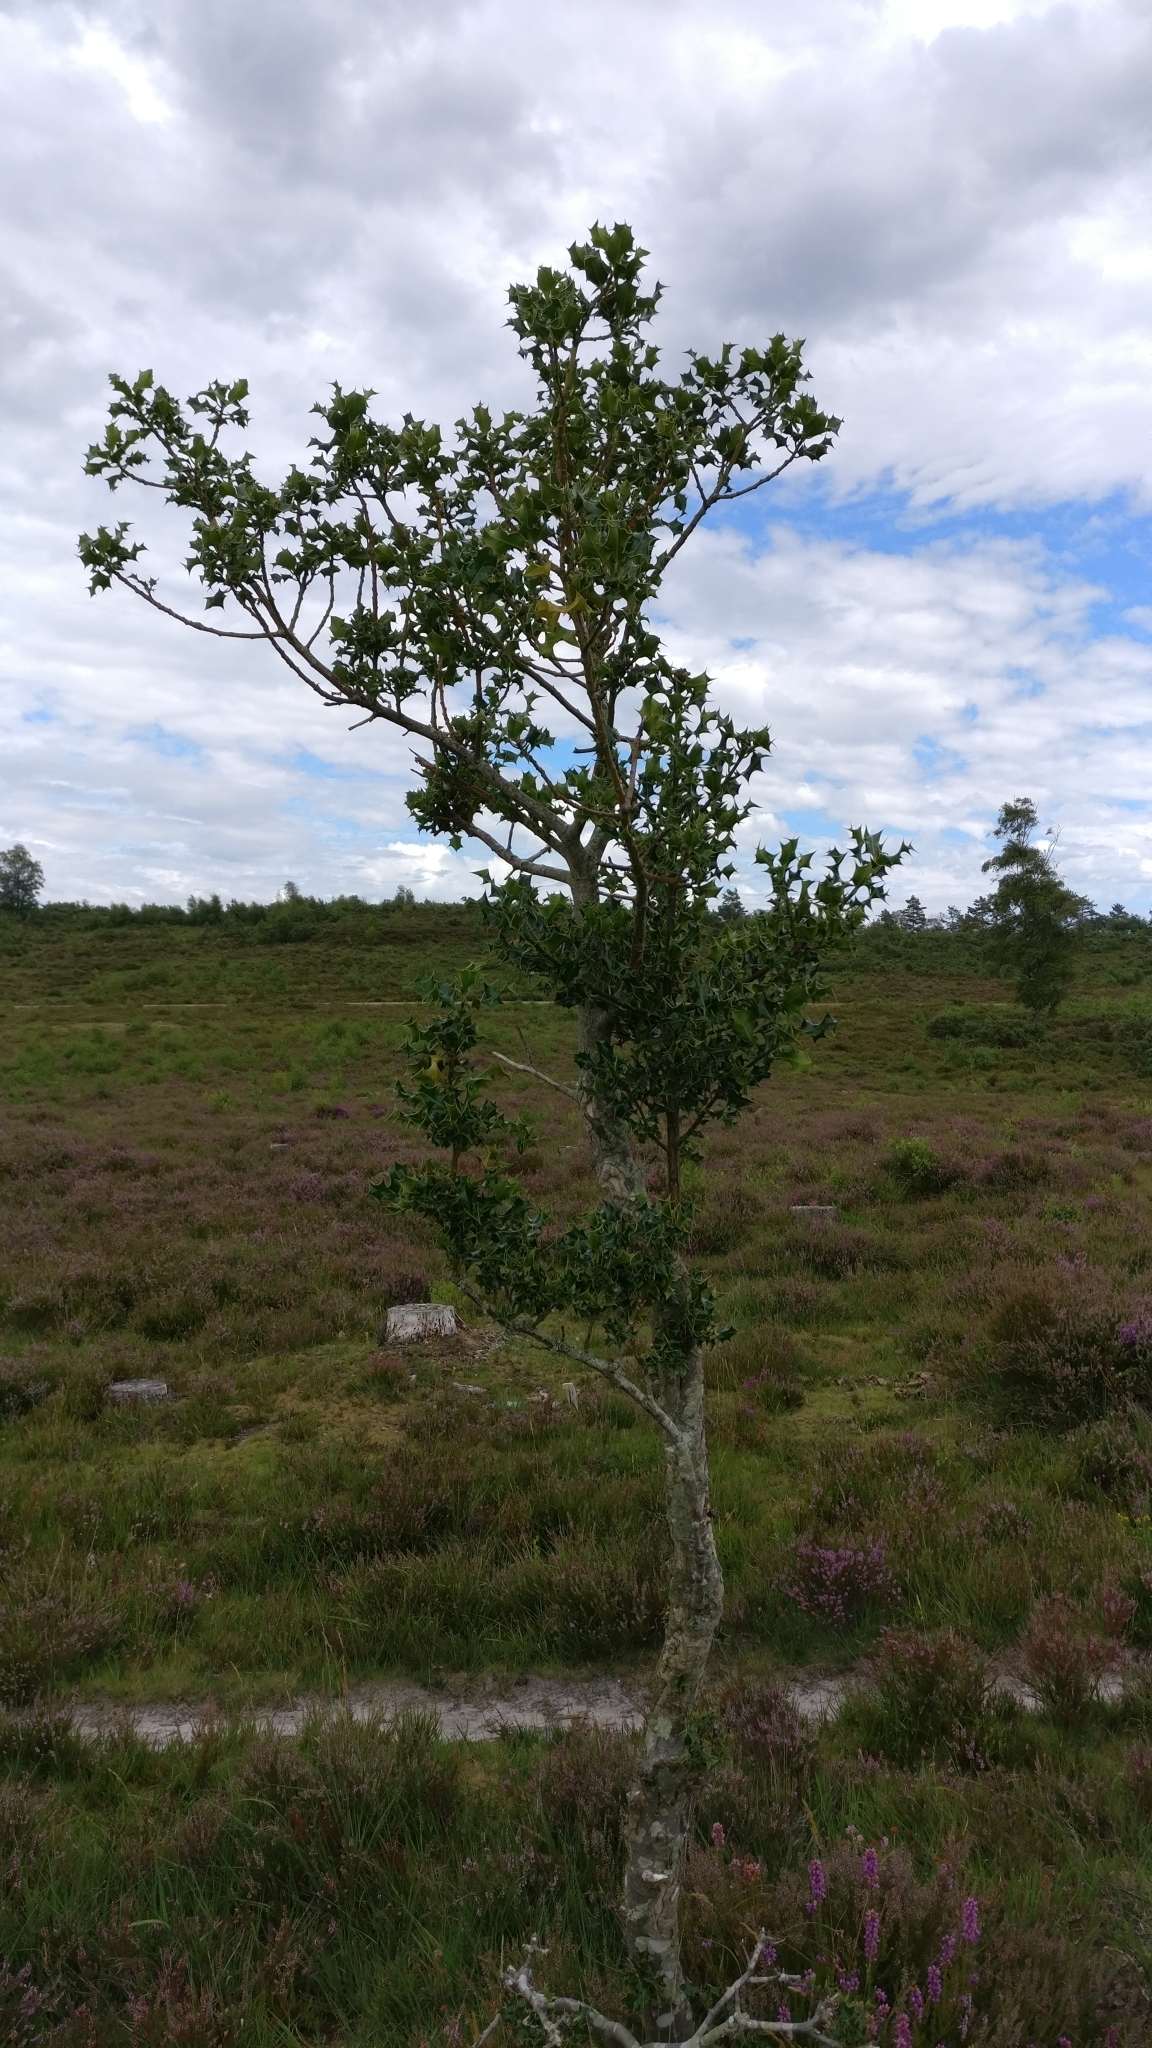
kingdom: Plantae
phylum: Tracheophyta
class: Magnoliopsida
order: Aquifoliales
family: Aquifoliaceae
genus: Ilex
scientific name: Ilex aquifolium
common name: English holly
